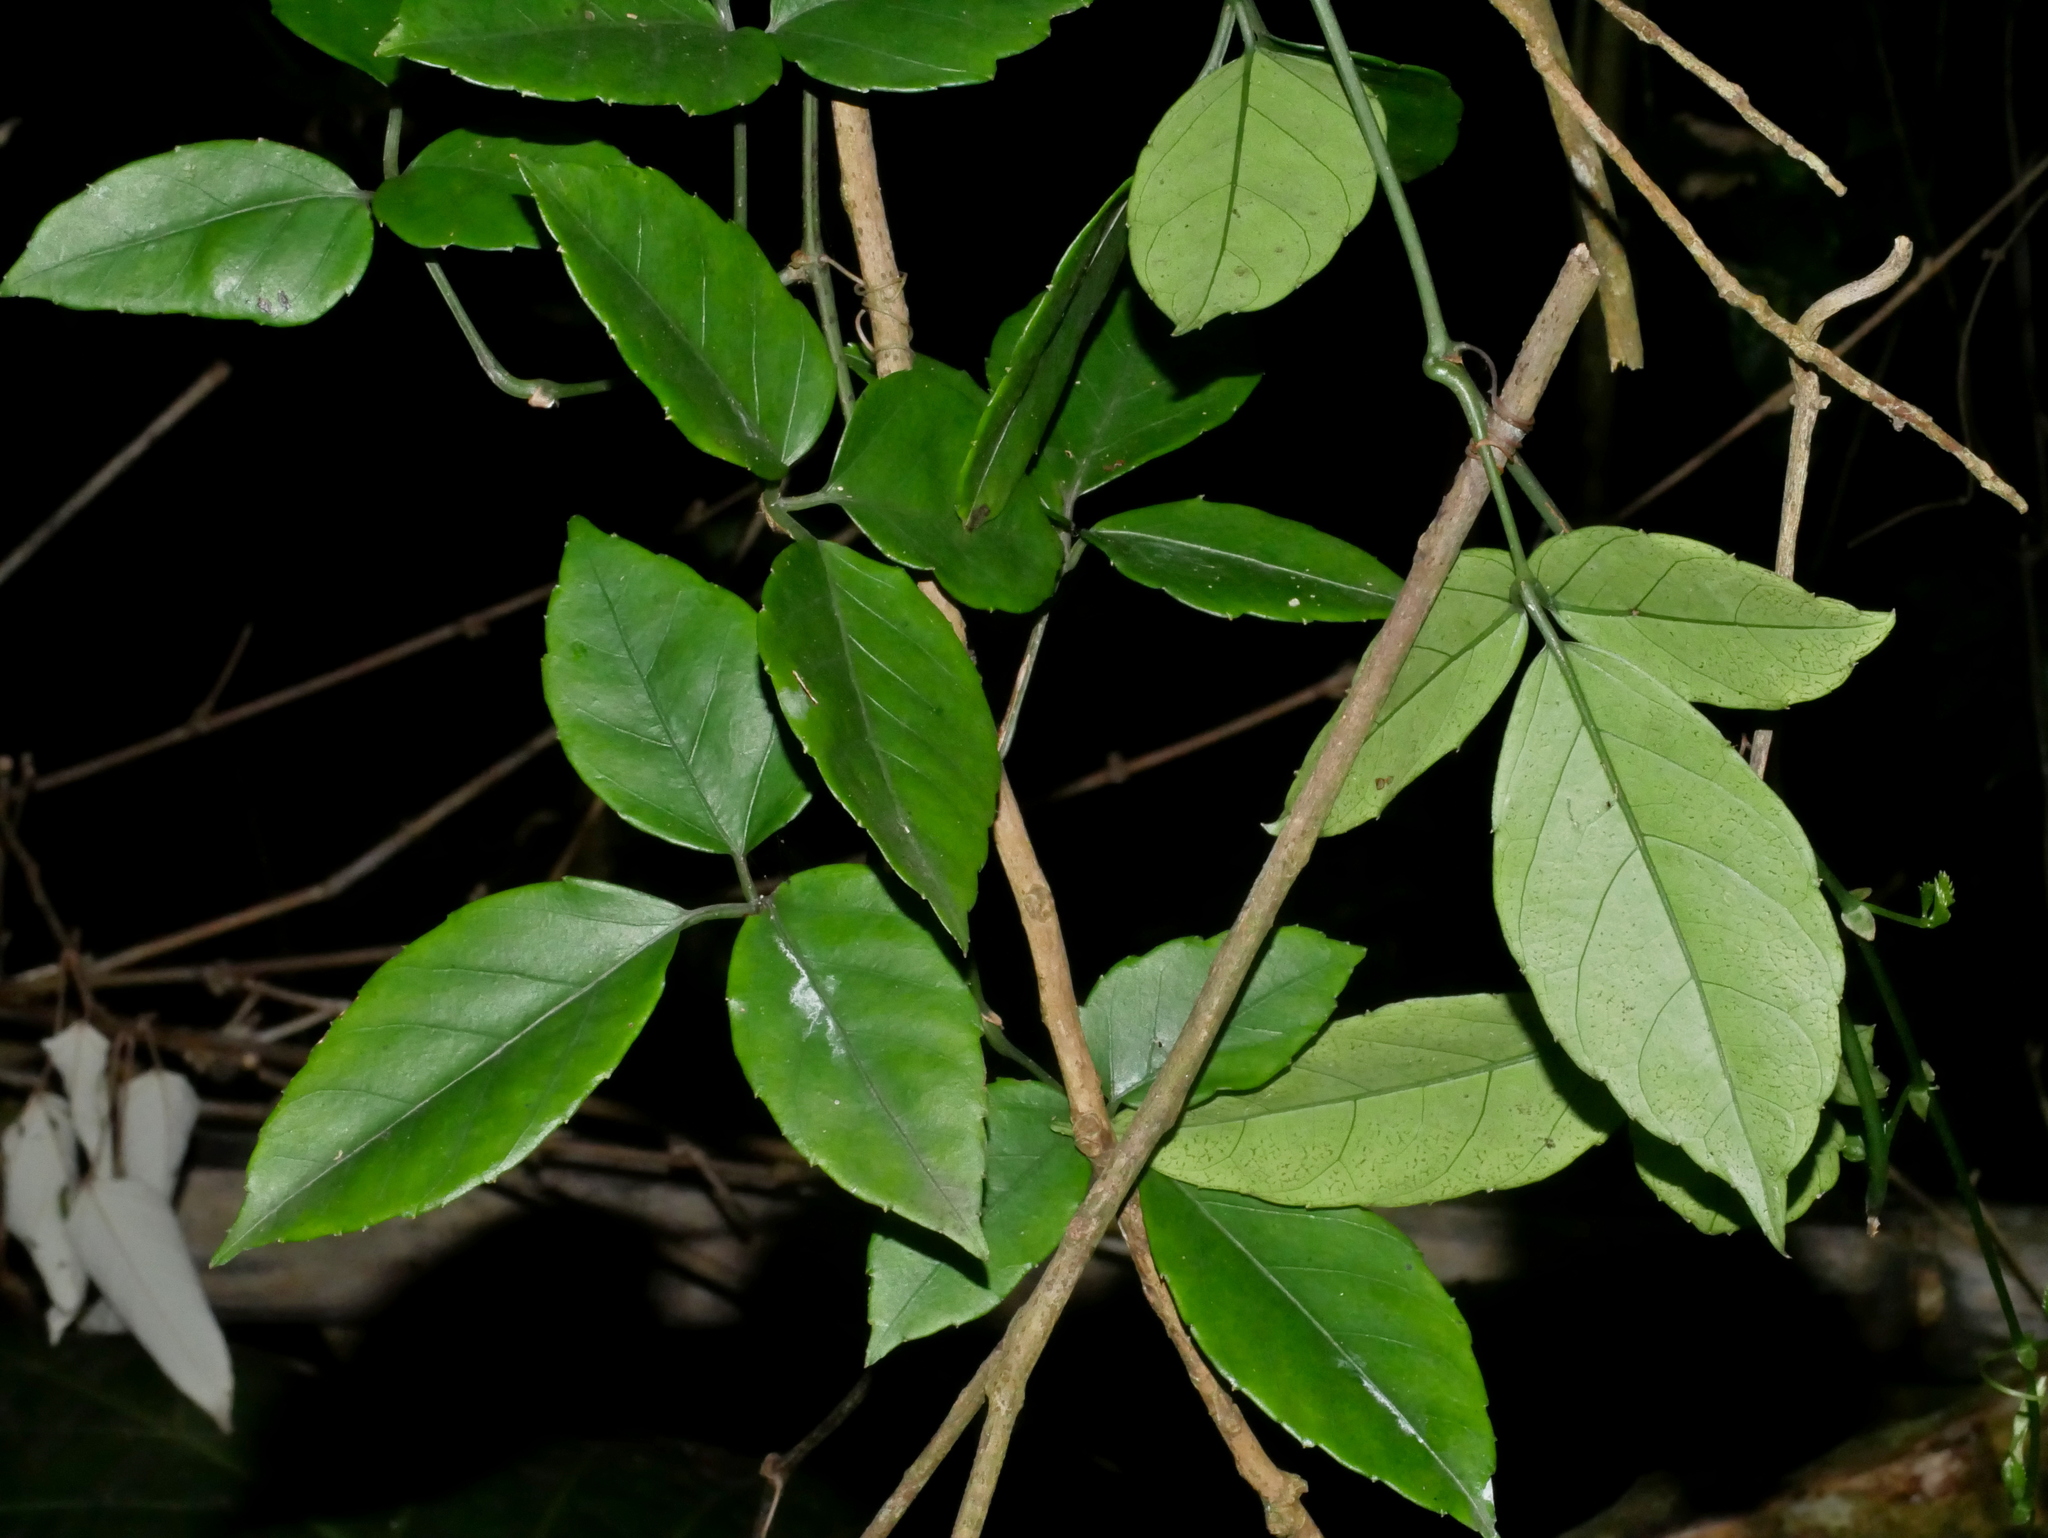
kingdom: Plantae
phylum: Tracheophyta
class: Magnoliopsida
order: Vitales
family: Vitaceae
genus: Tetrastigma
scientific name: Tetrastigma hemsleyanum
